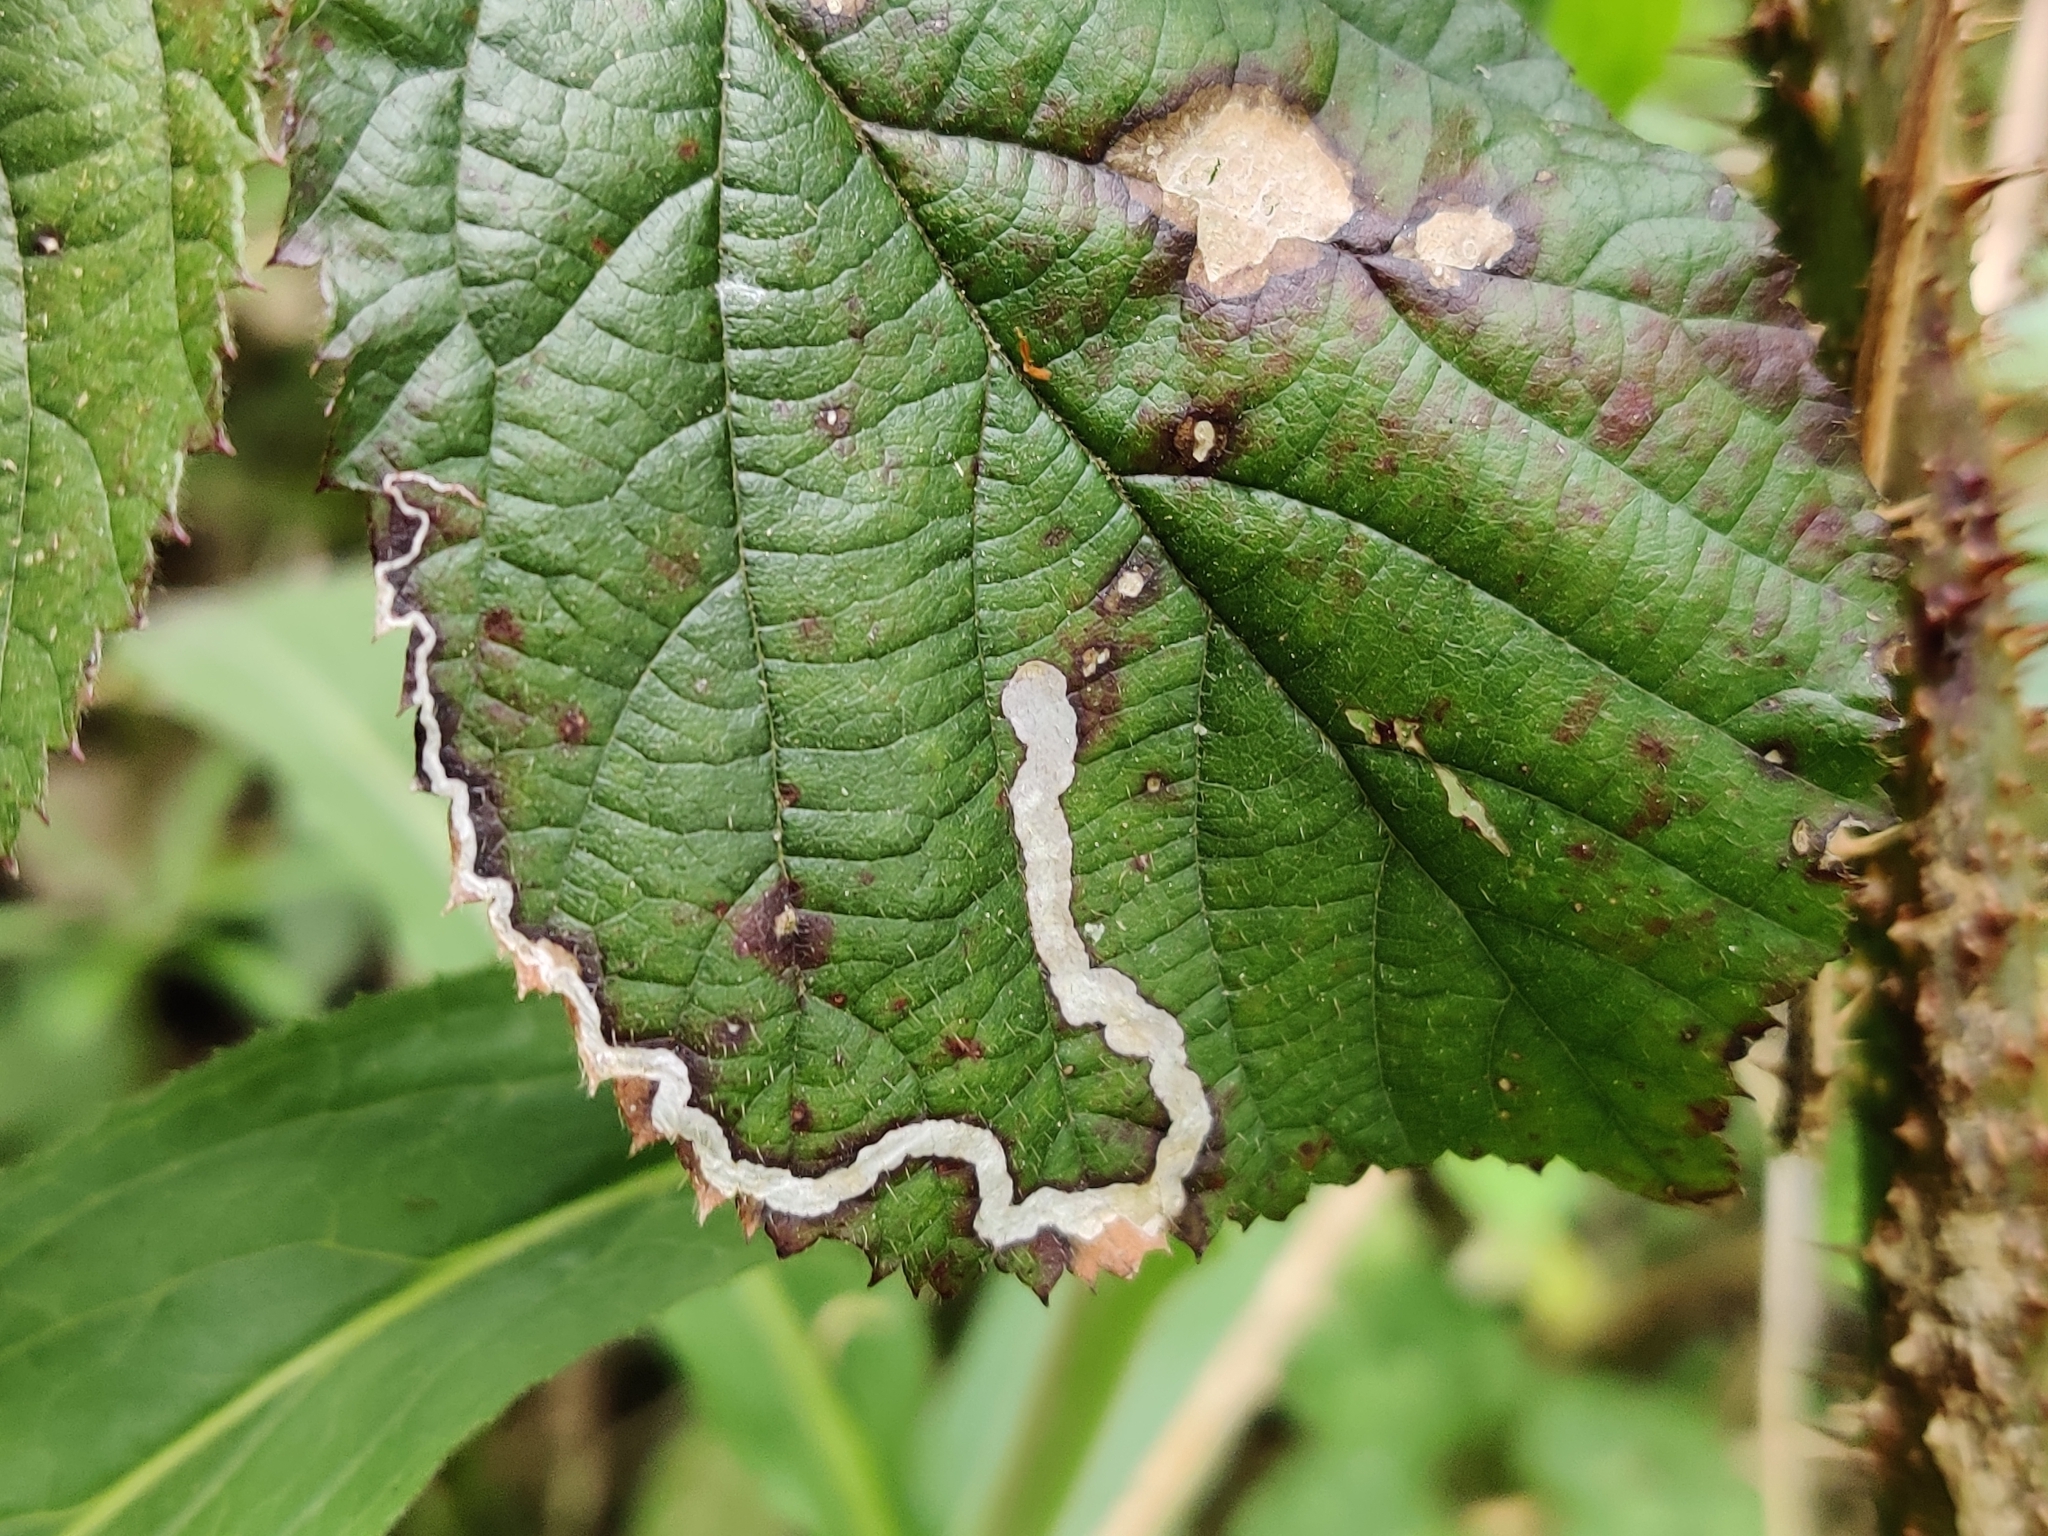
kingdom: Animalia
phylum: Arthropoda
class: Insecta
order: Lepidoptera
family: Nepticulidae
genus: Stigmella
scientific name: Stigmella aurella
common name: Golden pigmy
